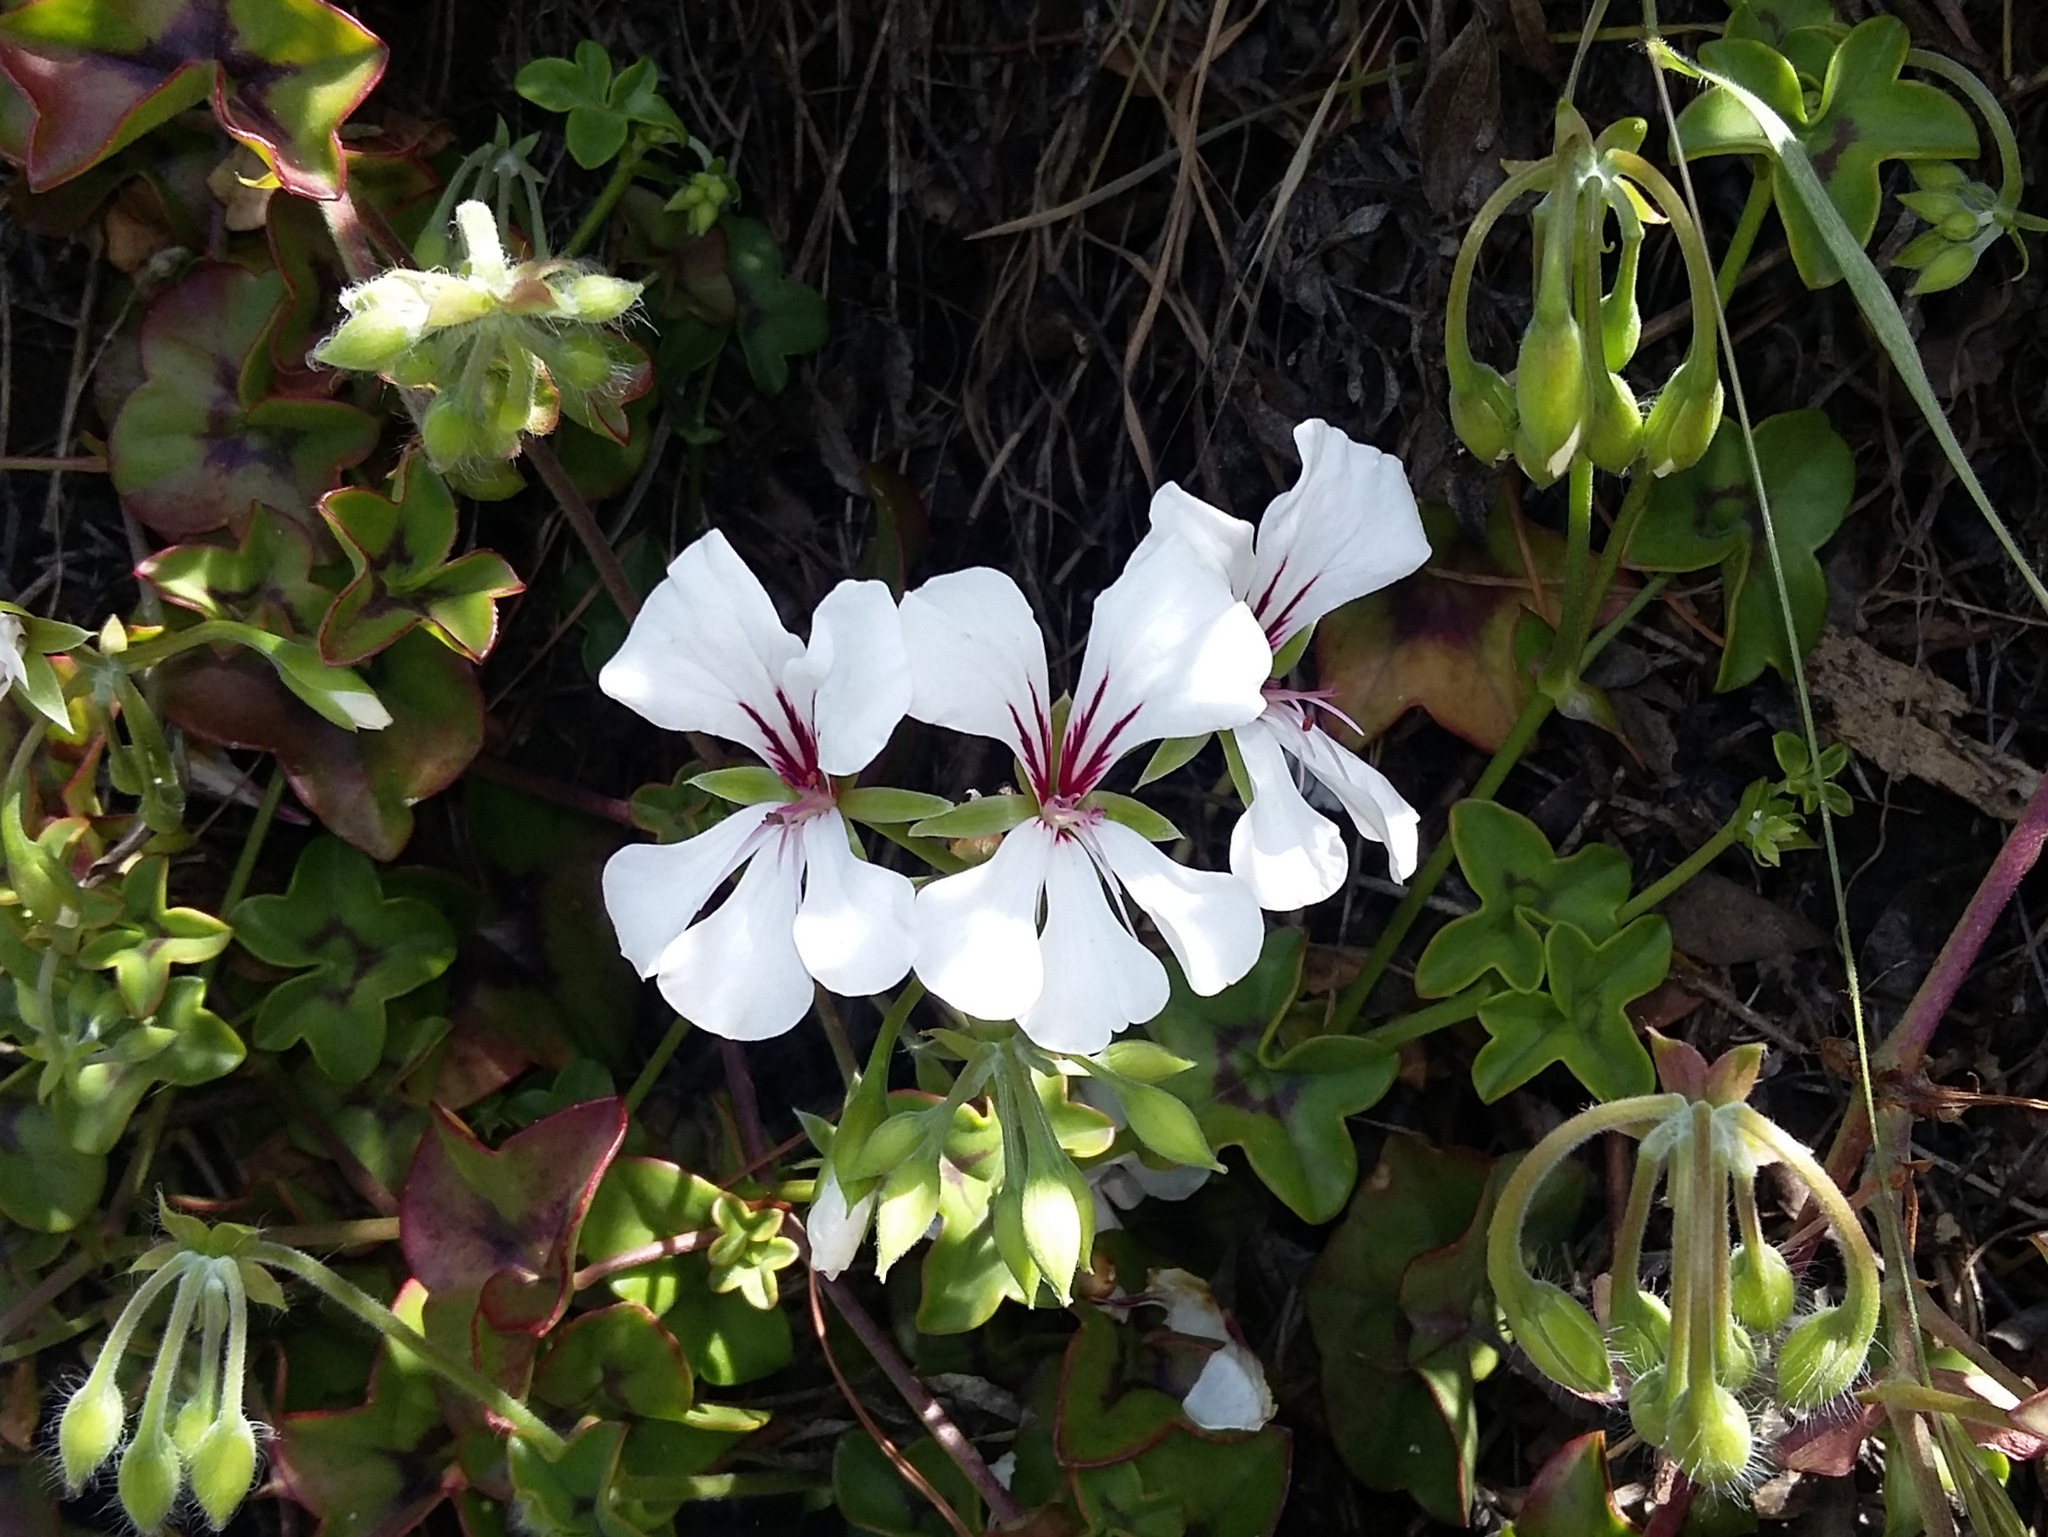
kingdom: Plantae
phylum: Tracheophyta
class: Magnoliopsida
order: Geraniales
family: Geraniaceae
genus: Pelargonium
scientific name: Pelargonium peltatum
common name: Ivyleaf geranium
